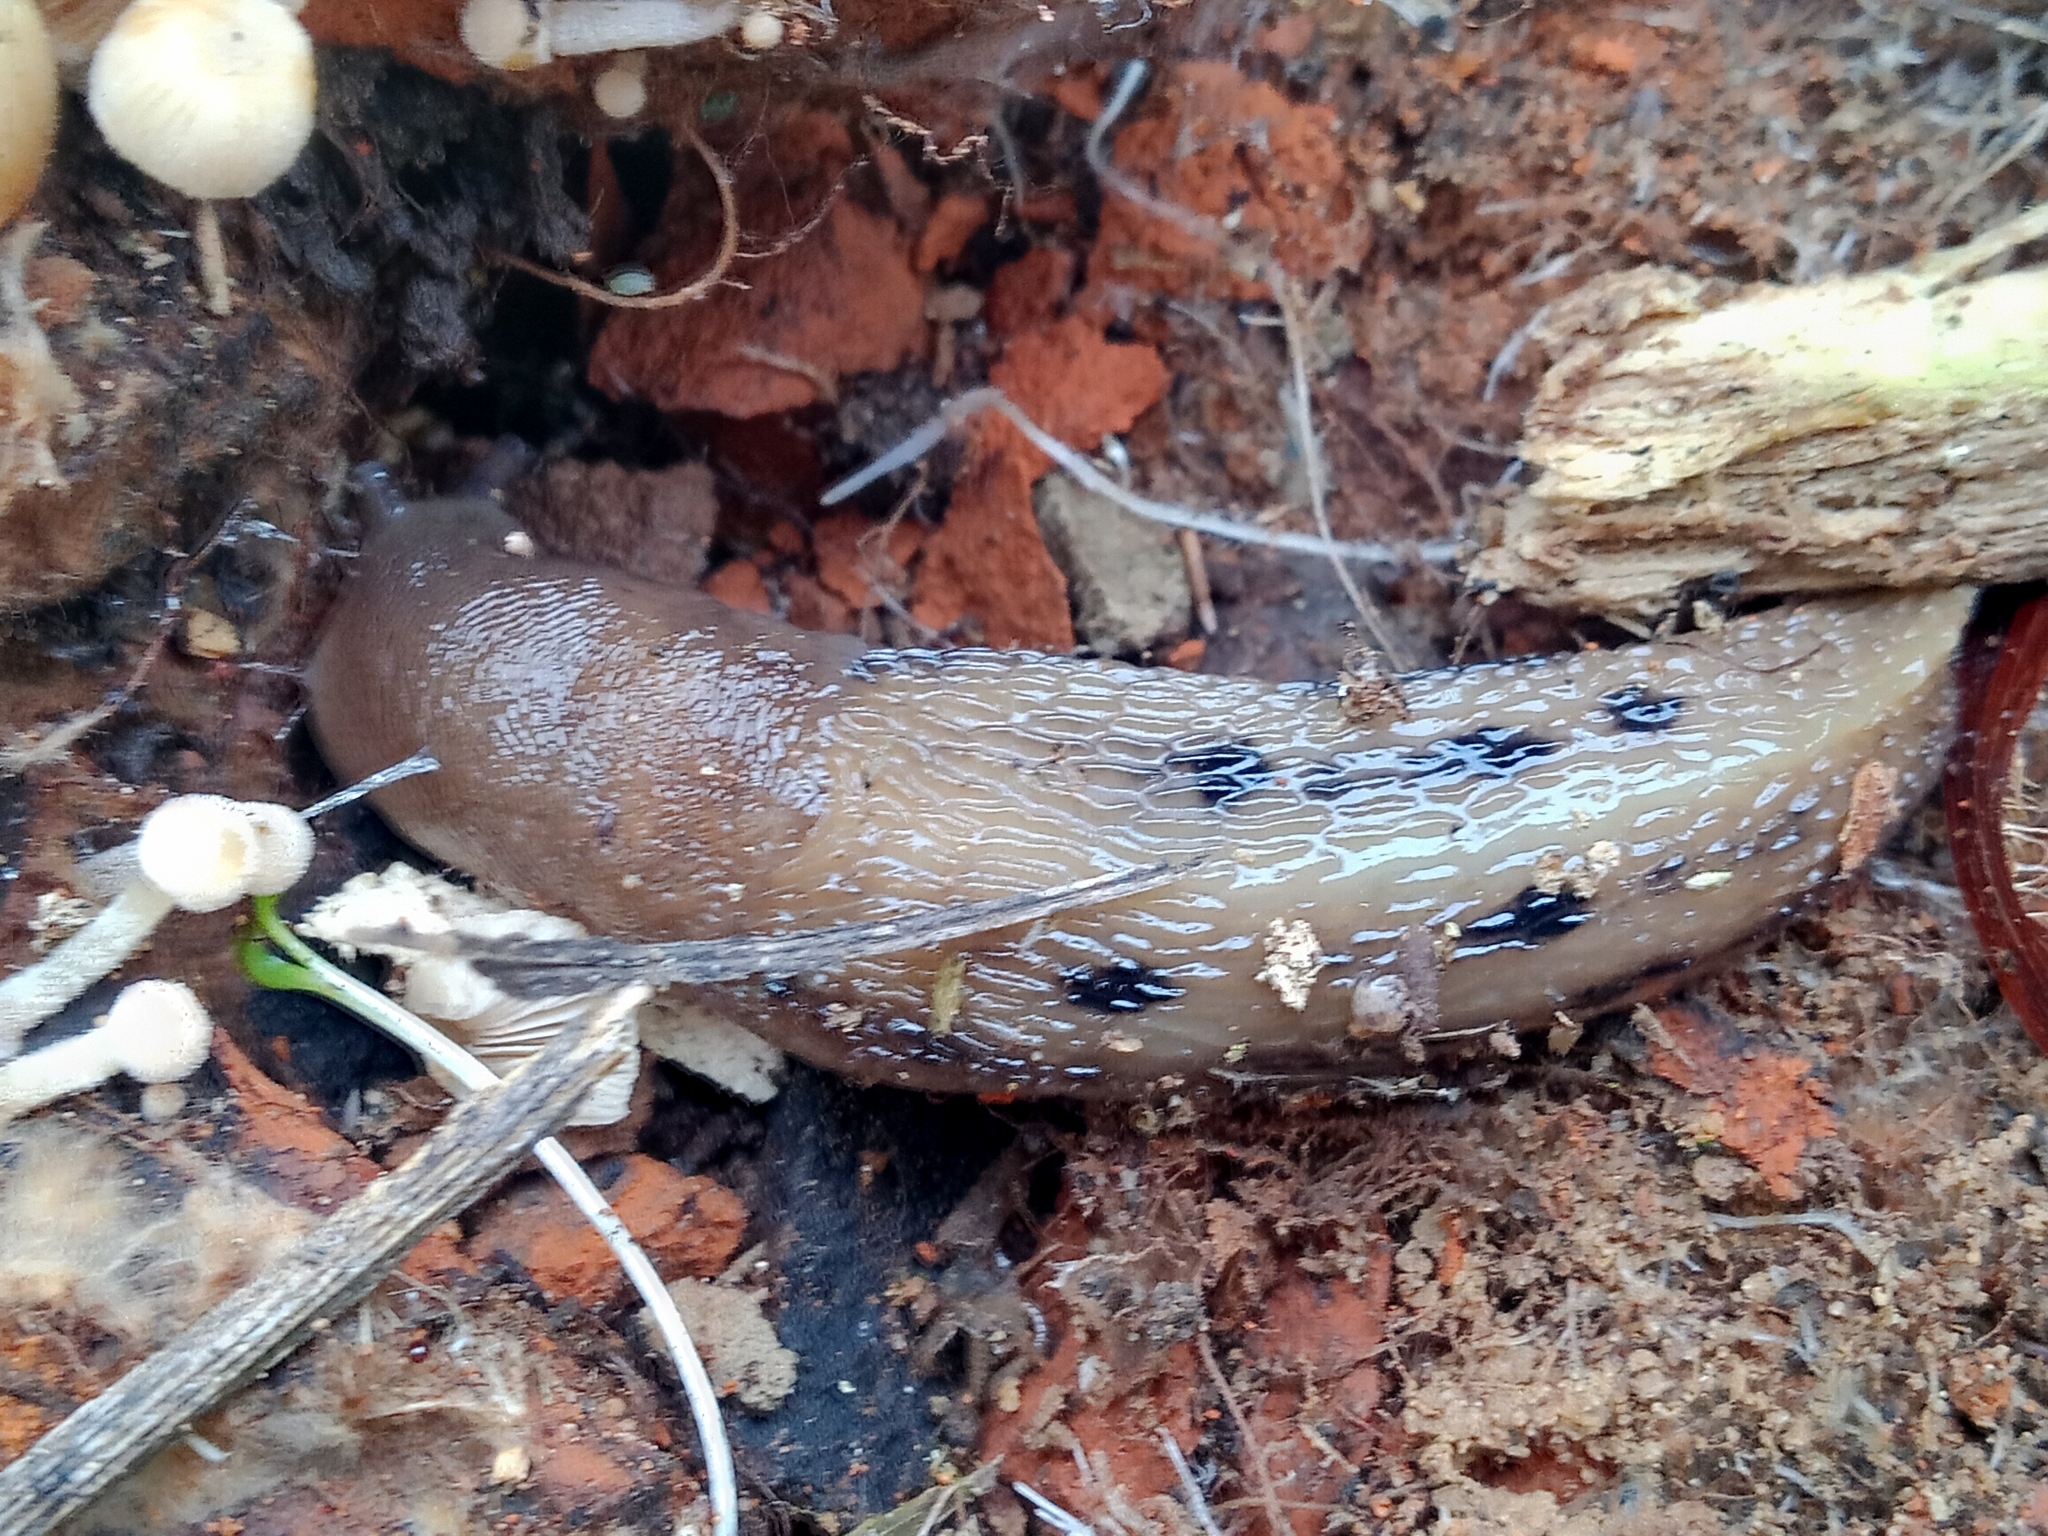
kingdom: Animalia
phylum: Mollusca
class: Gastropoda
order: Stylommatophora
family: Limacidae
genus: Limax
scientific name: Limax cinereoniger
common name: Ash-black slug
